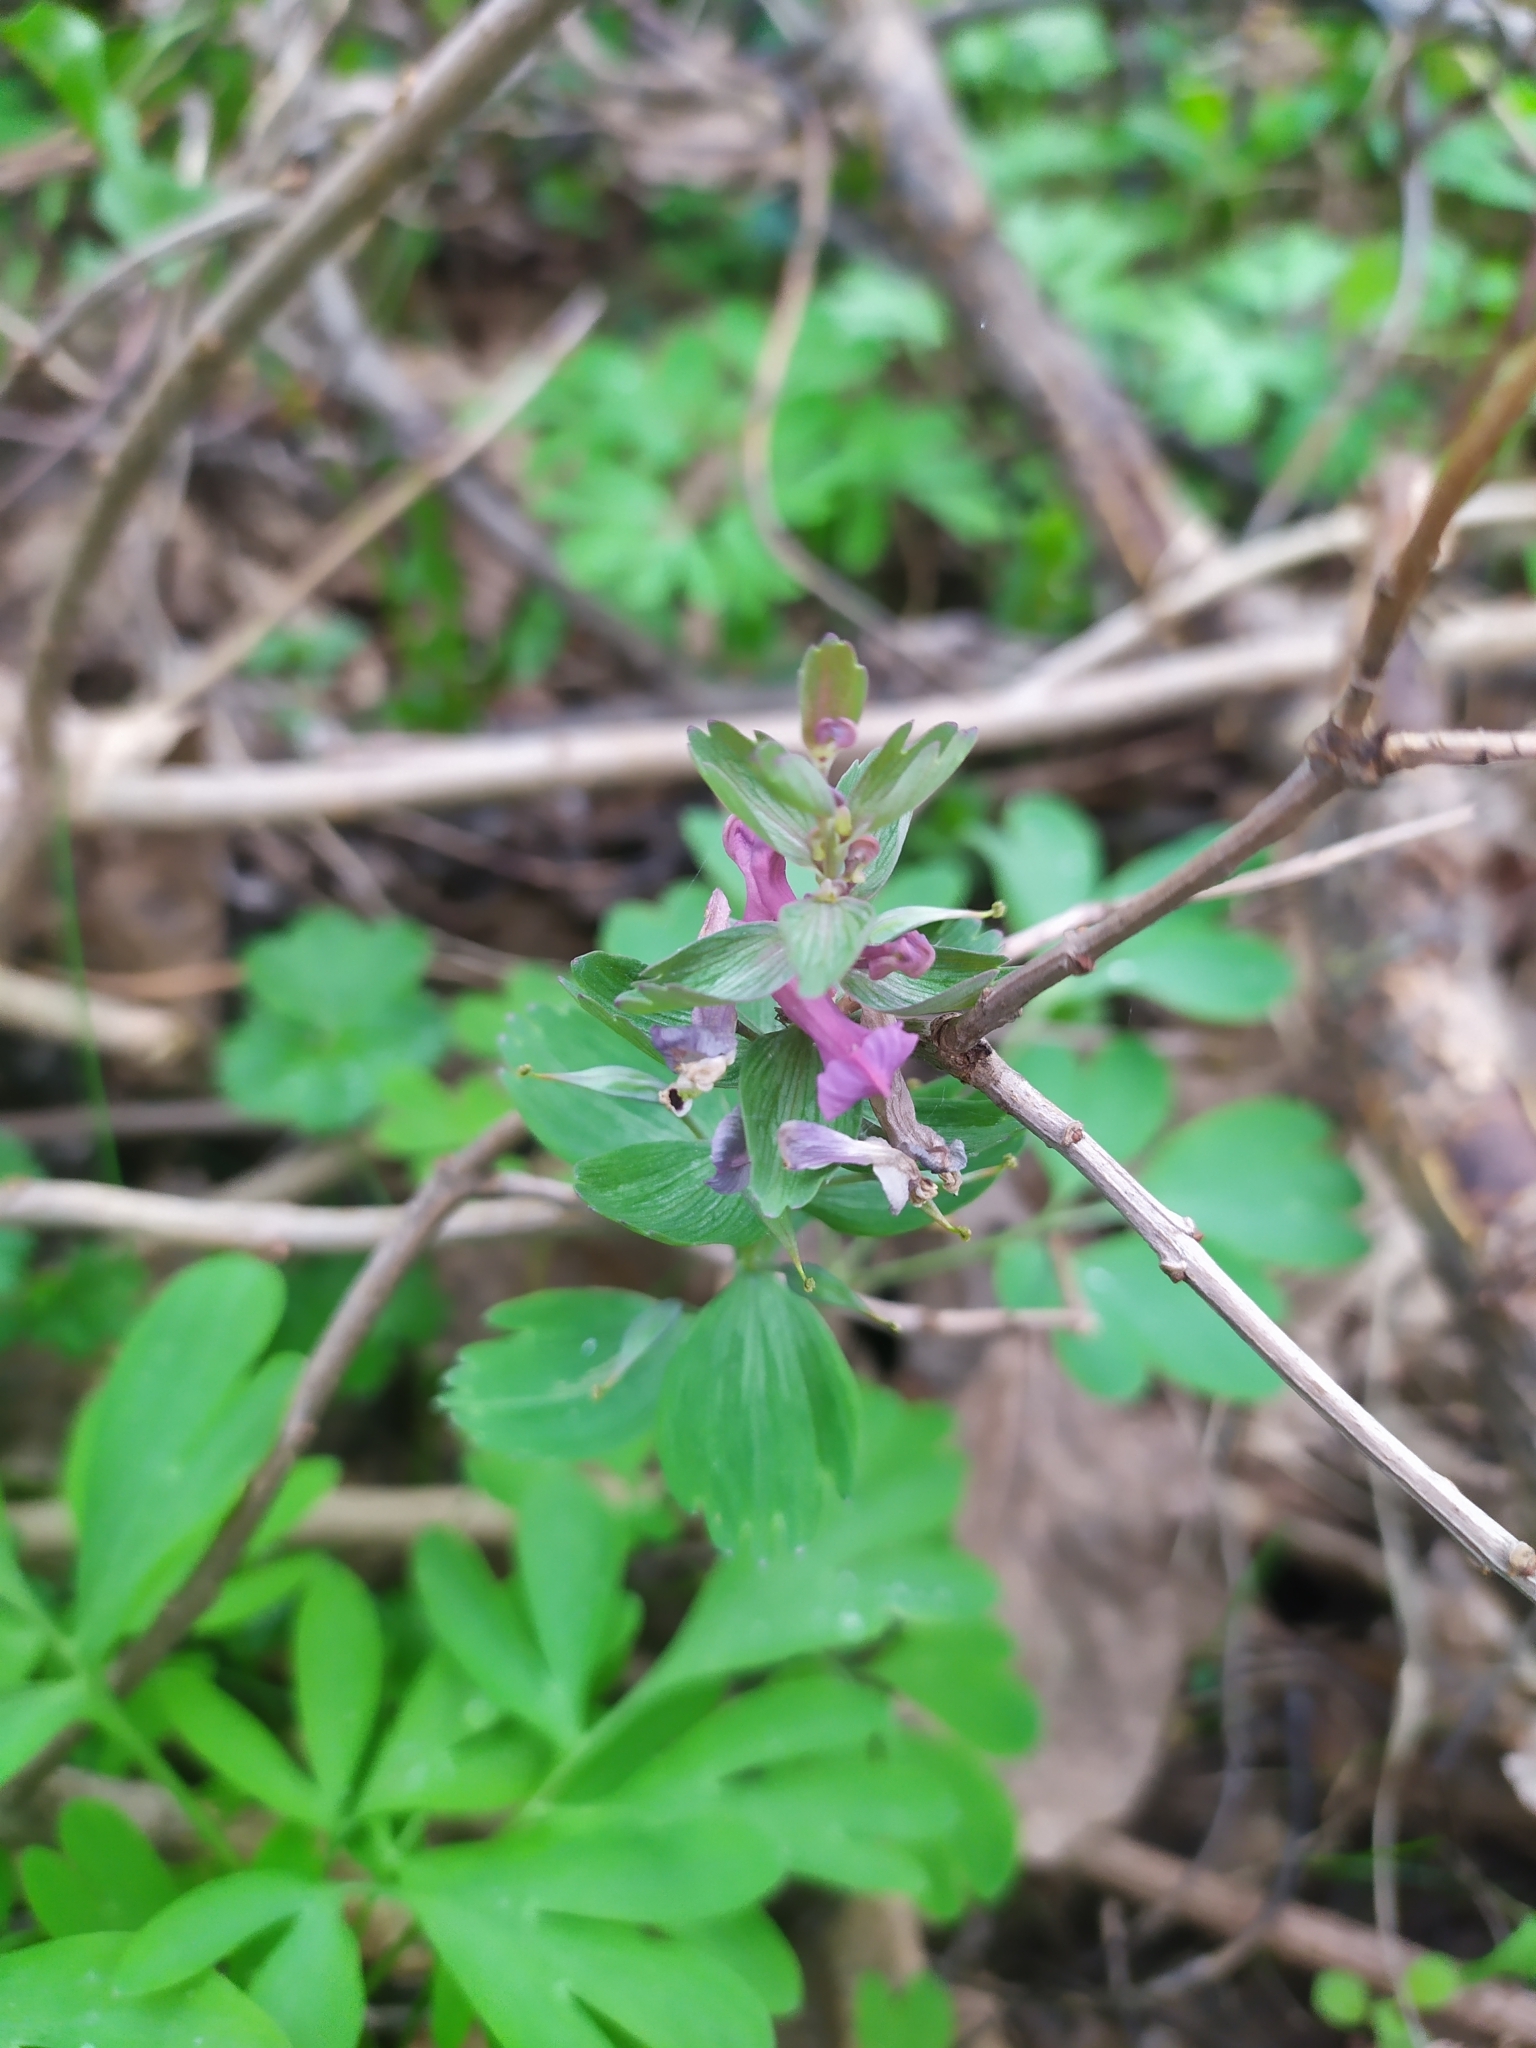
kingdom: Plantae
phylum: Tracheophyta
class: Magnoliopsida
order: Ranunculales
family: Papaveraceae
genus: Corydalis
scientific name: Corydalis solida
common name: Bird-in-a-bush
